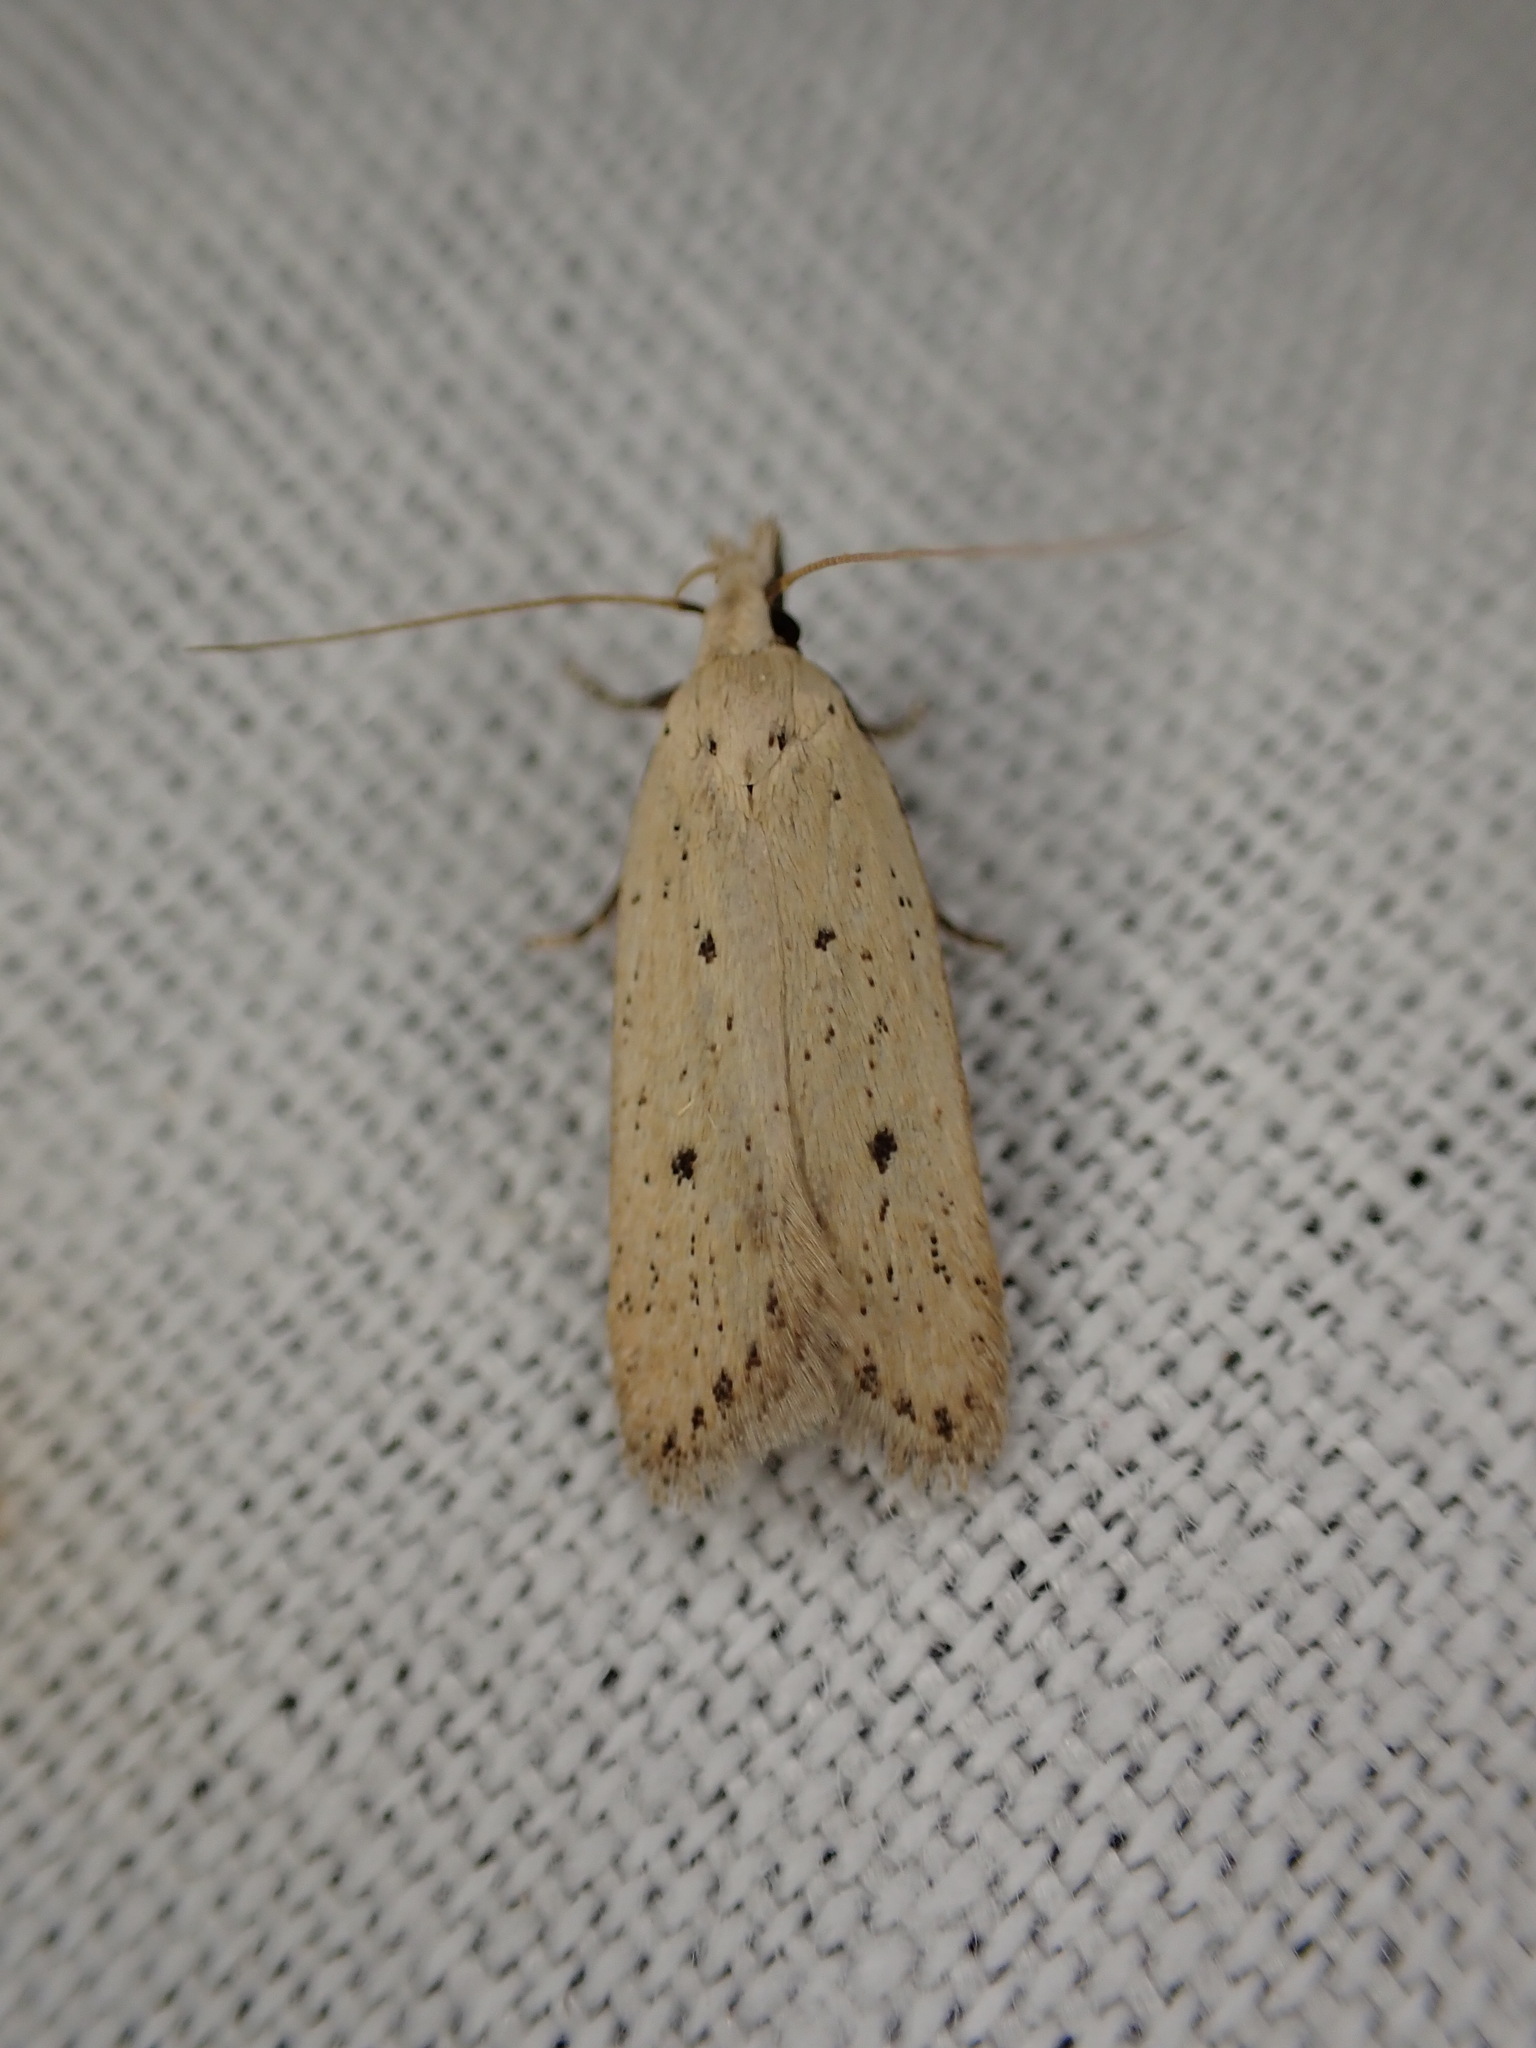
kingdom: Animalia
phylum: Arthropoda
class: Insecta
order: Lepidoptera
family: Gelechiidae
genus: Nothris
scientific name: Nothris verbascella
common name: Clay groundling
